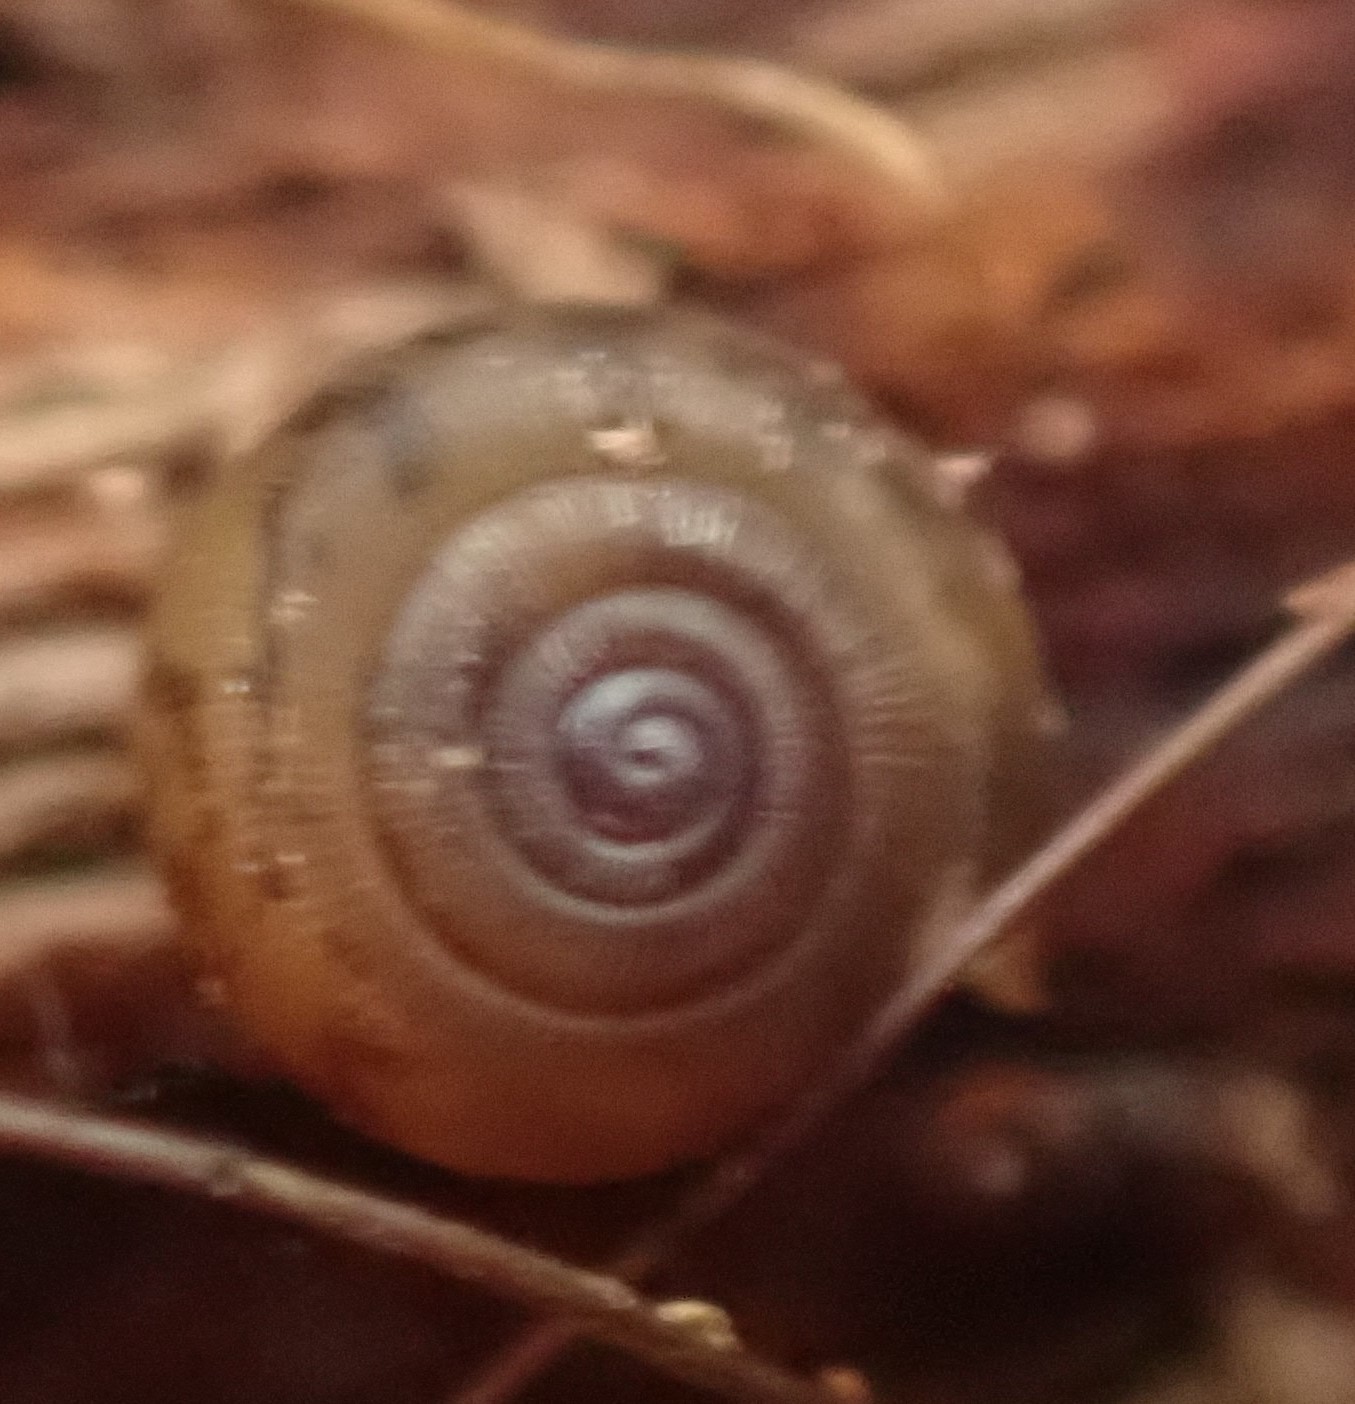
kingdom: Animalia
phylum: Mollusca
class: Gastropoda
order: Stylommatophora
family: Charopidae
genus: Oreomava
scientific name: Oreomava johnstoni
